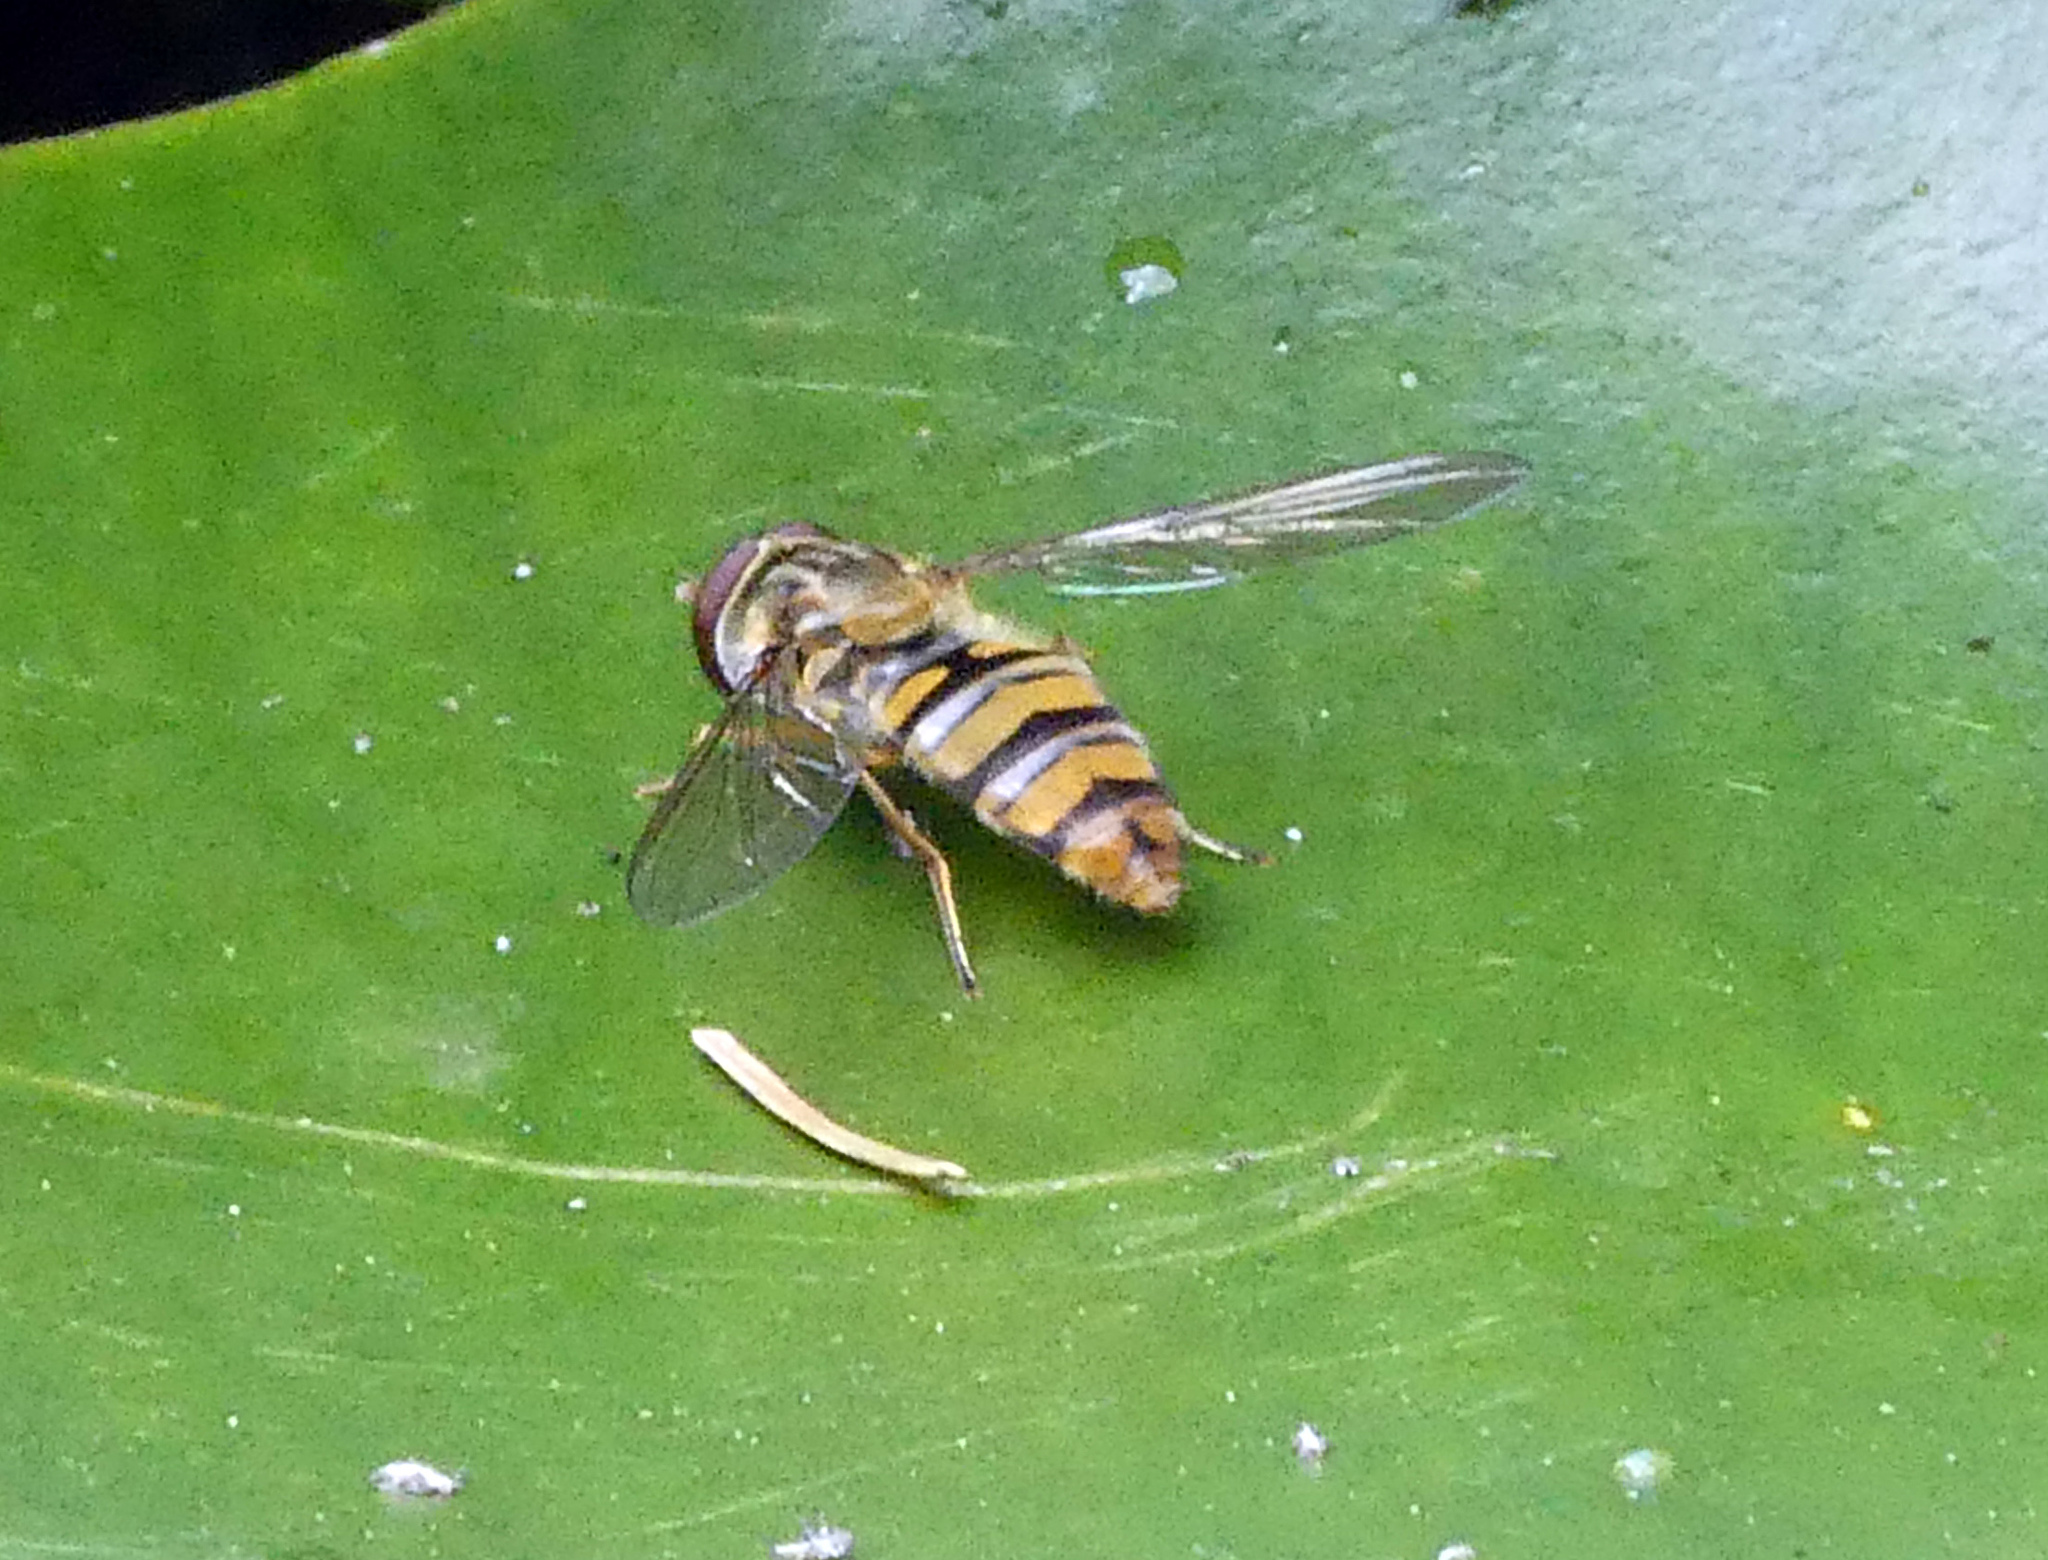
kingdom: Animalia
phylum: Arthropoda
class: Insecta
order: Diptera
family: Syrphidae
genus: Episyrphus
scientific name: Episyrphus balteatus
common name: Marmalade hoverfly
